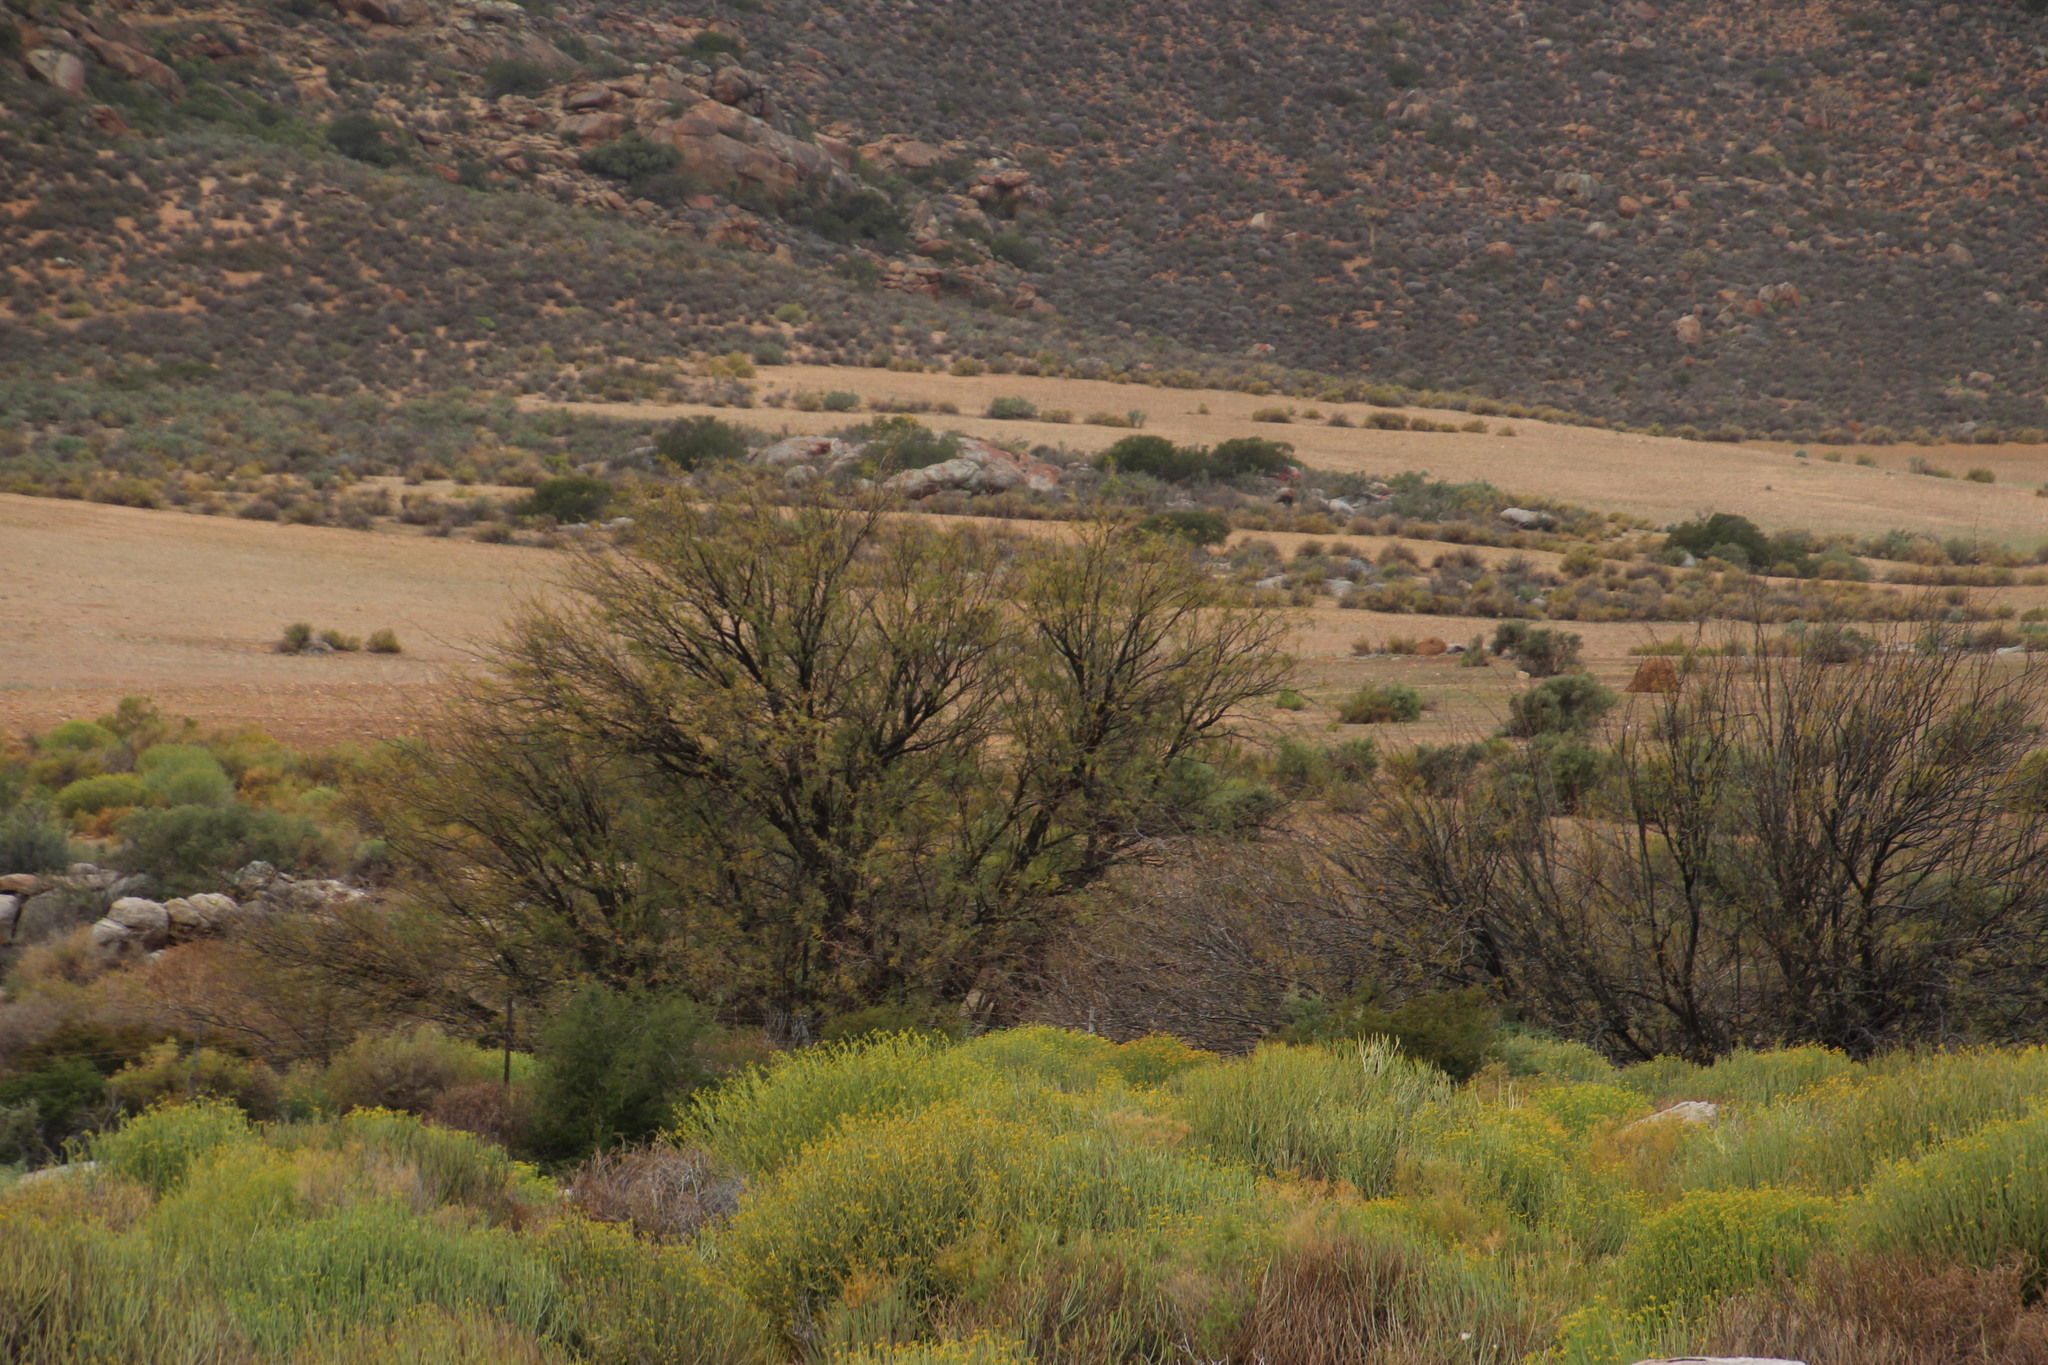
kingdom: Plantae
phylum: Tracheophyta
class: Magnoliopsida
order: Fabales
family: Fabaceae
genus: Vachellia
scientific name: Vachellia karroo
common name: Sweet thorn
